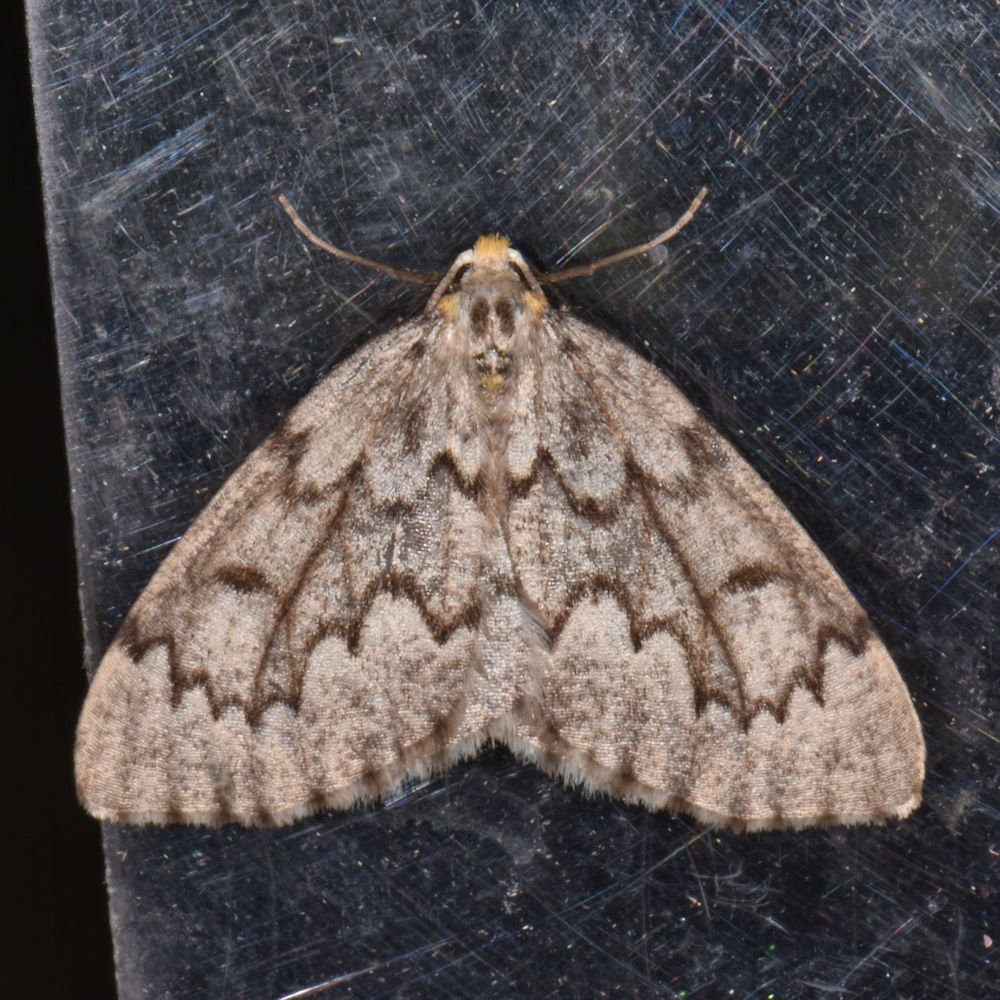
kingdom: Animalia
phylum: Arthropoda
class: Insecta
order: Lepidoptera
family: Geometridae
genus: Nepytia
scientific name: Nepytia canosaria
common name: False hemlock looper
